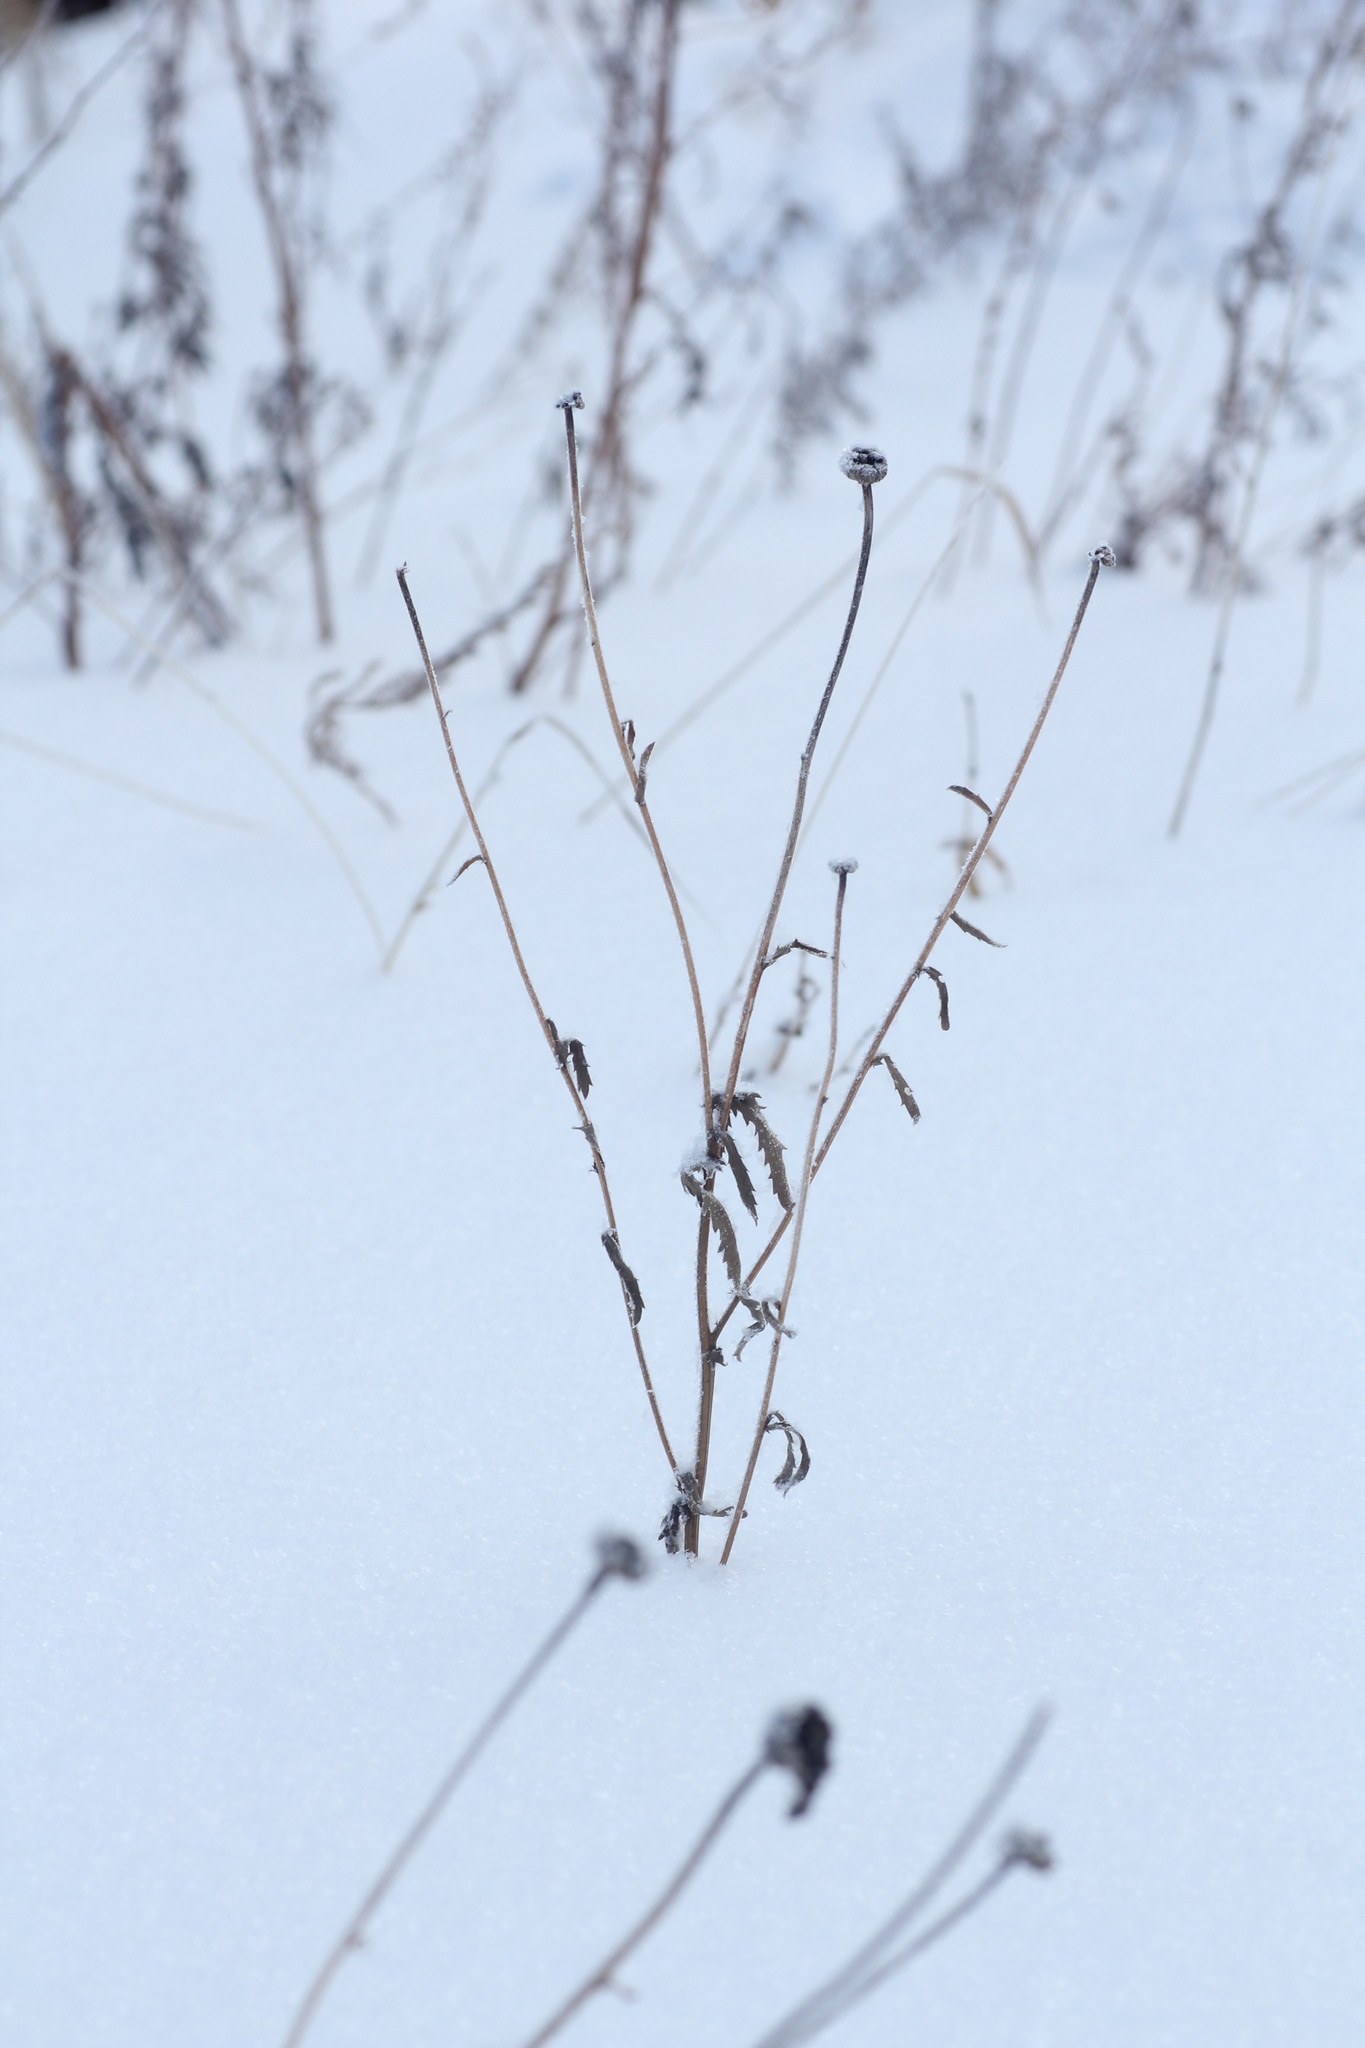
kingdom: Plantae
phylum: Tracheophyta
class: Magnoliopsida
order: Asterales
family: Asteraceae
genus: Leucanthemum
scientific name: Leucanthemum ircutianum
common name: Daisy
